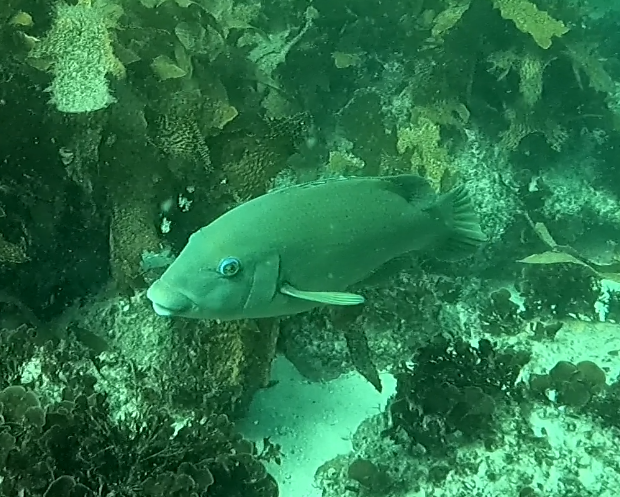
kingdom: Animalia
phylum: Chordata
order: Perciformes
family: Labridae
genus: Achoerodus
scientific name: Achoerodus viridis
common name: Brown groper
